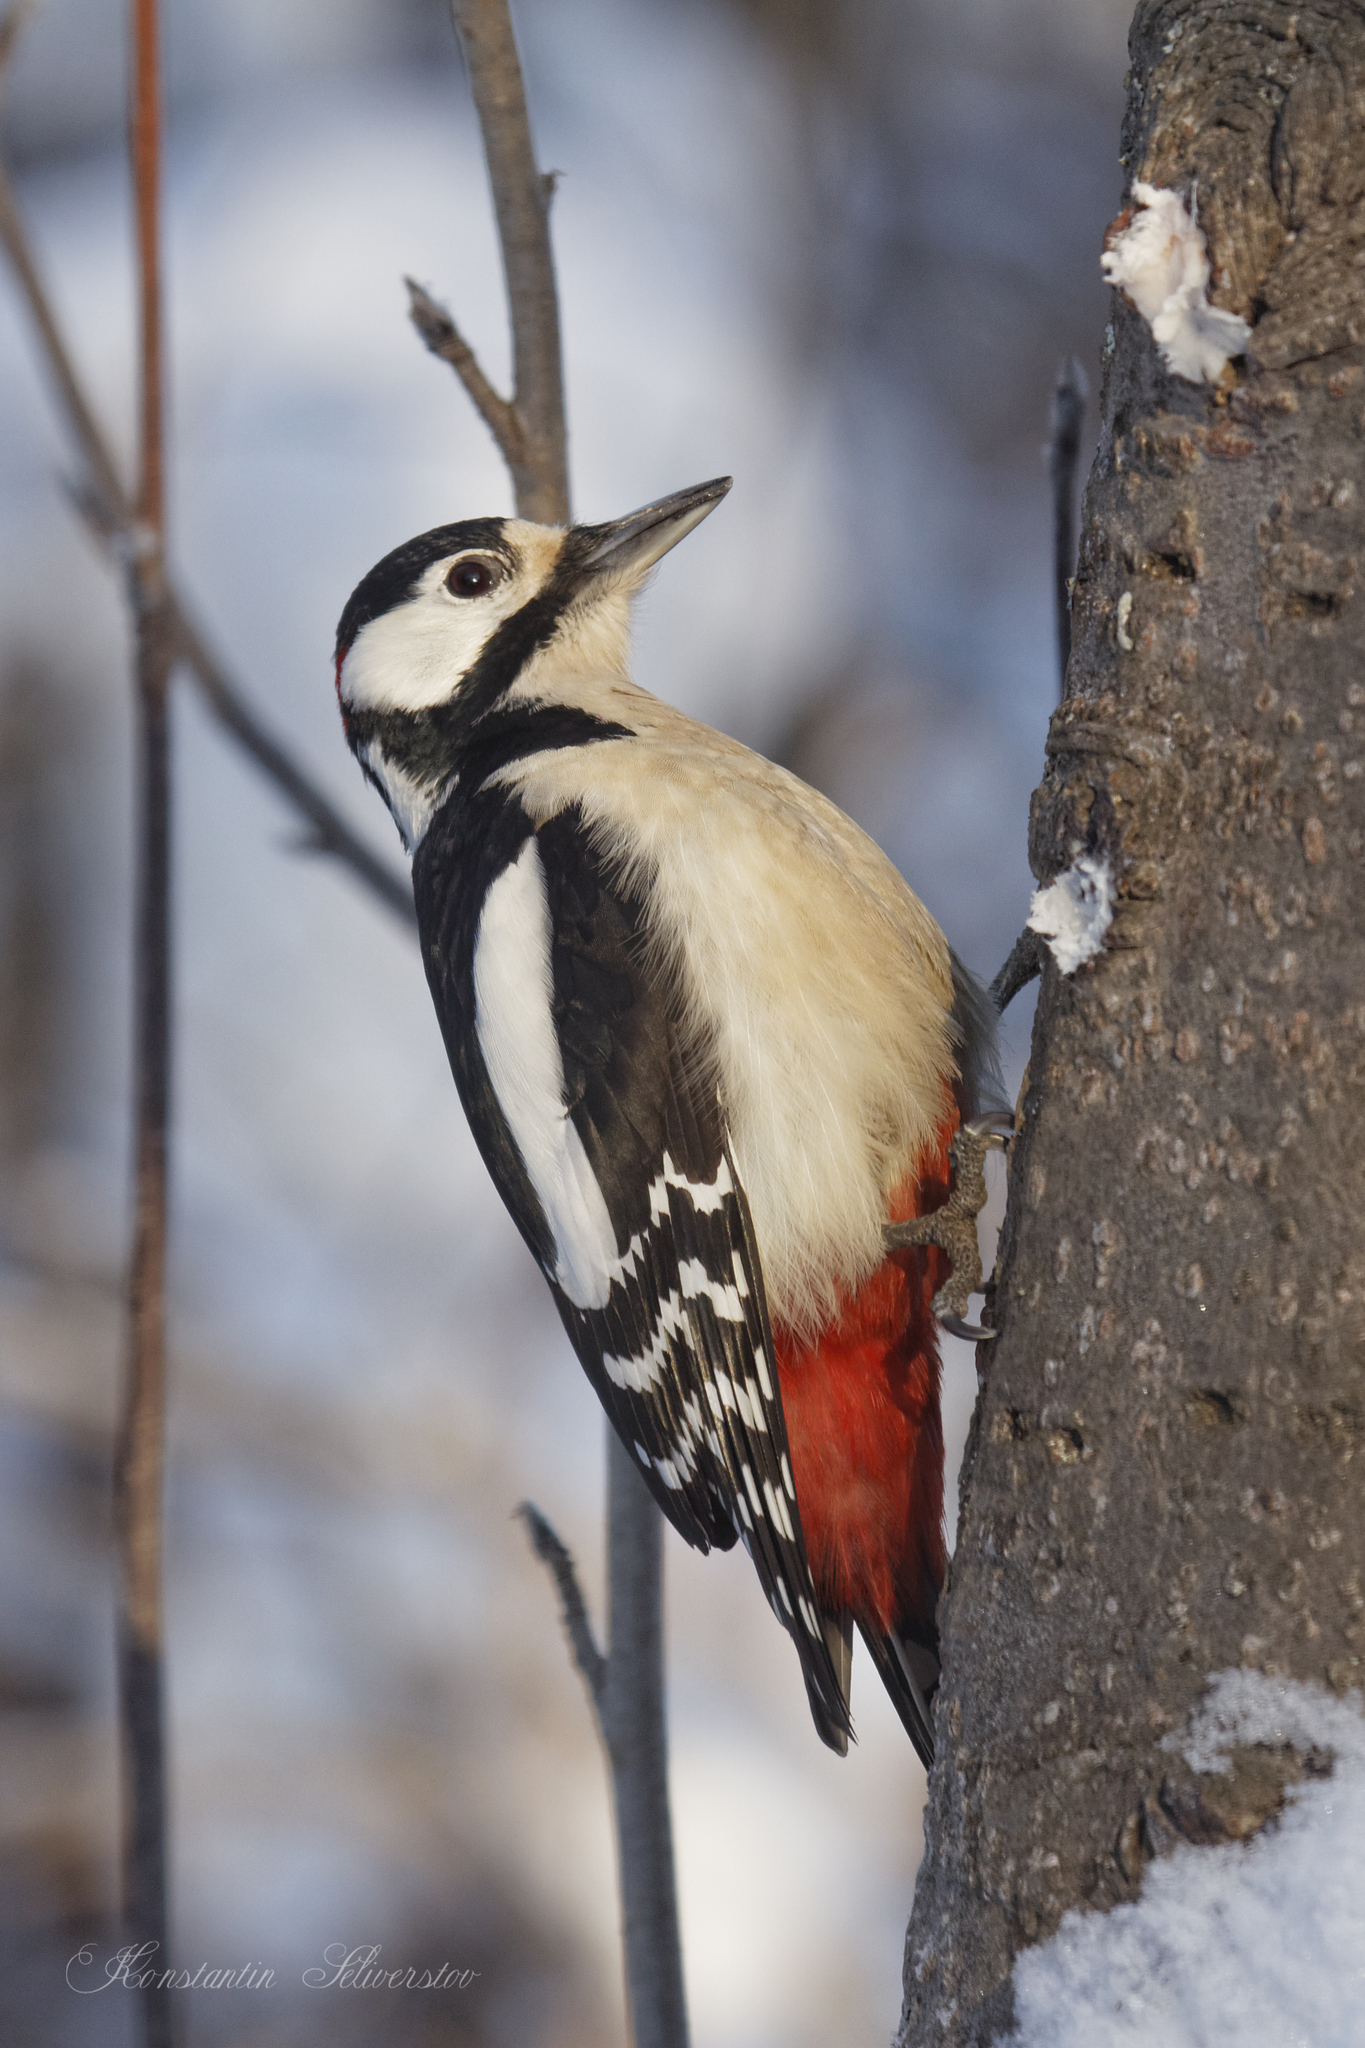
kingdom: Animalia
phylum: Chordata
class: Aves
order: Piciformes
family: Picidae
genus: Dendrocopos
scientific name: Dendrocopos major
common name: Great spotted woodpecker
